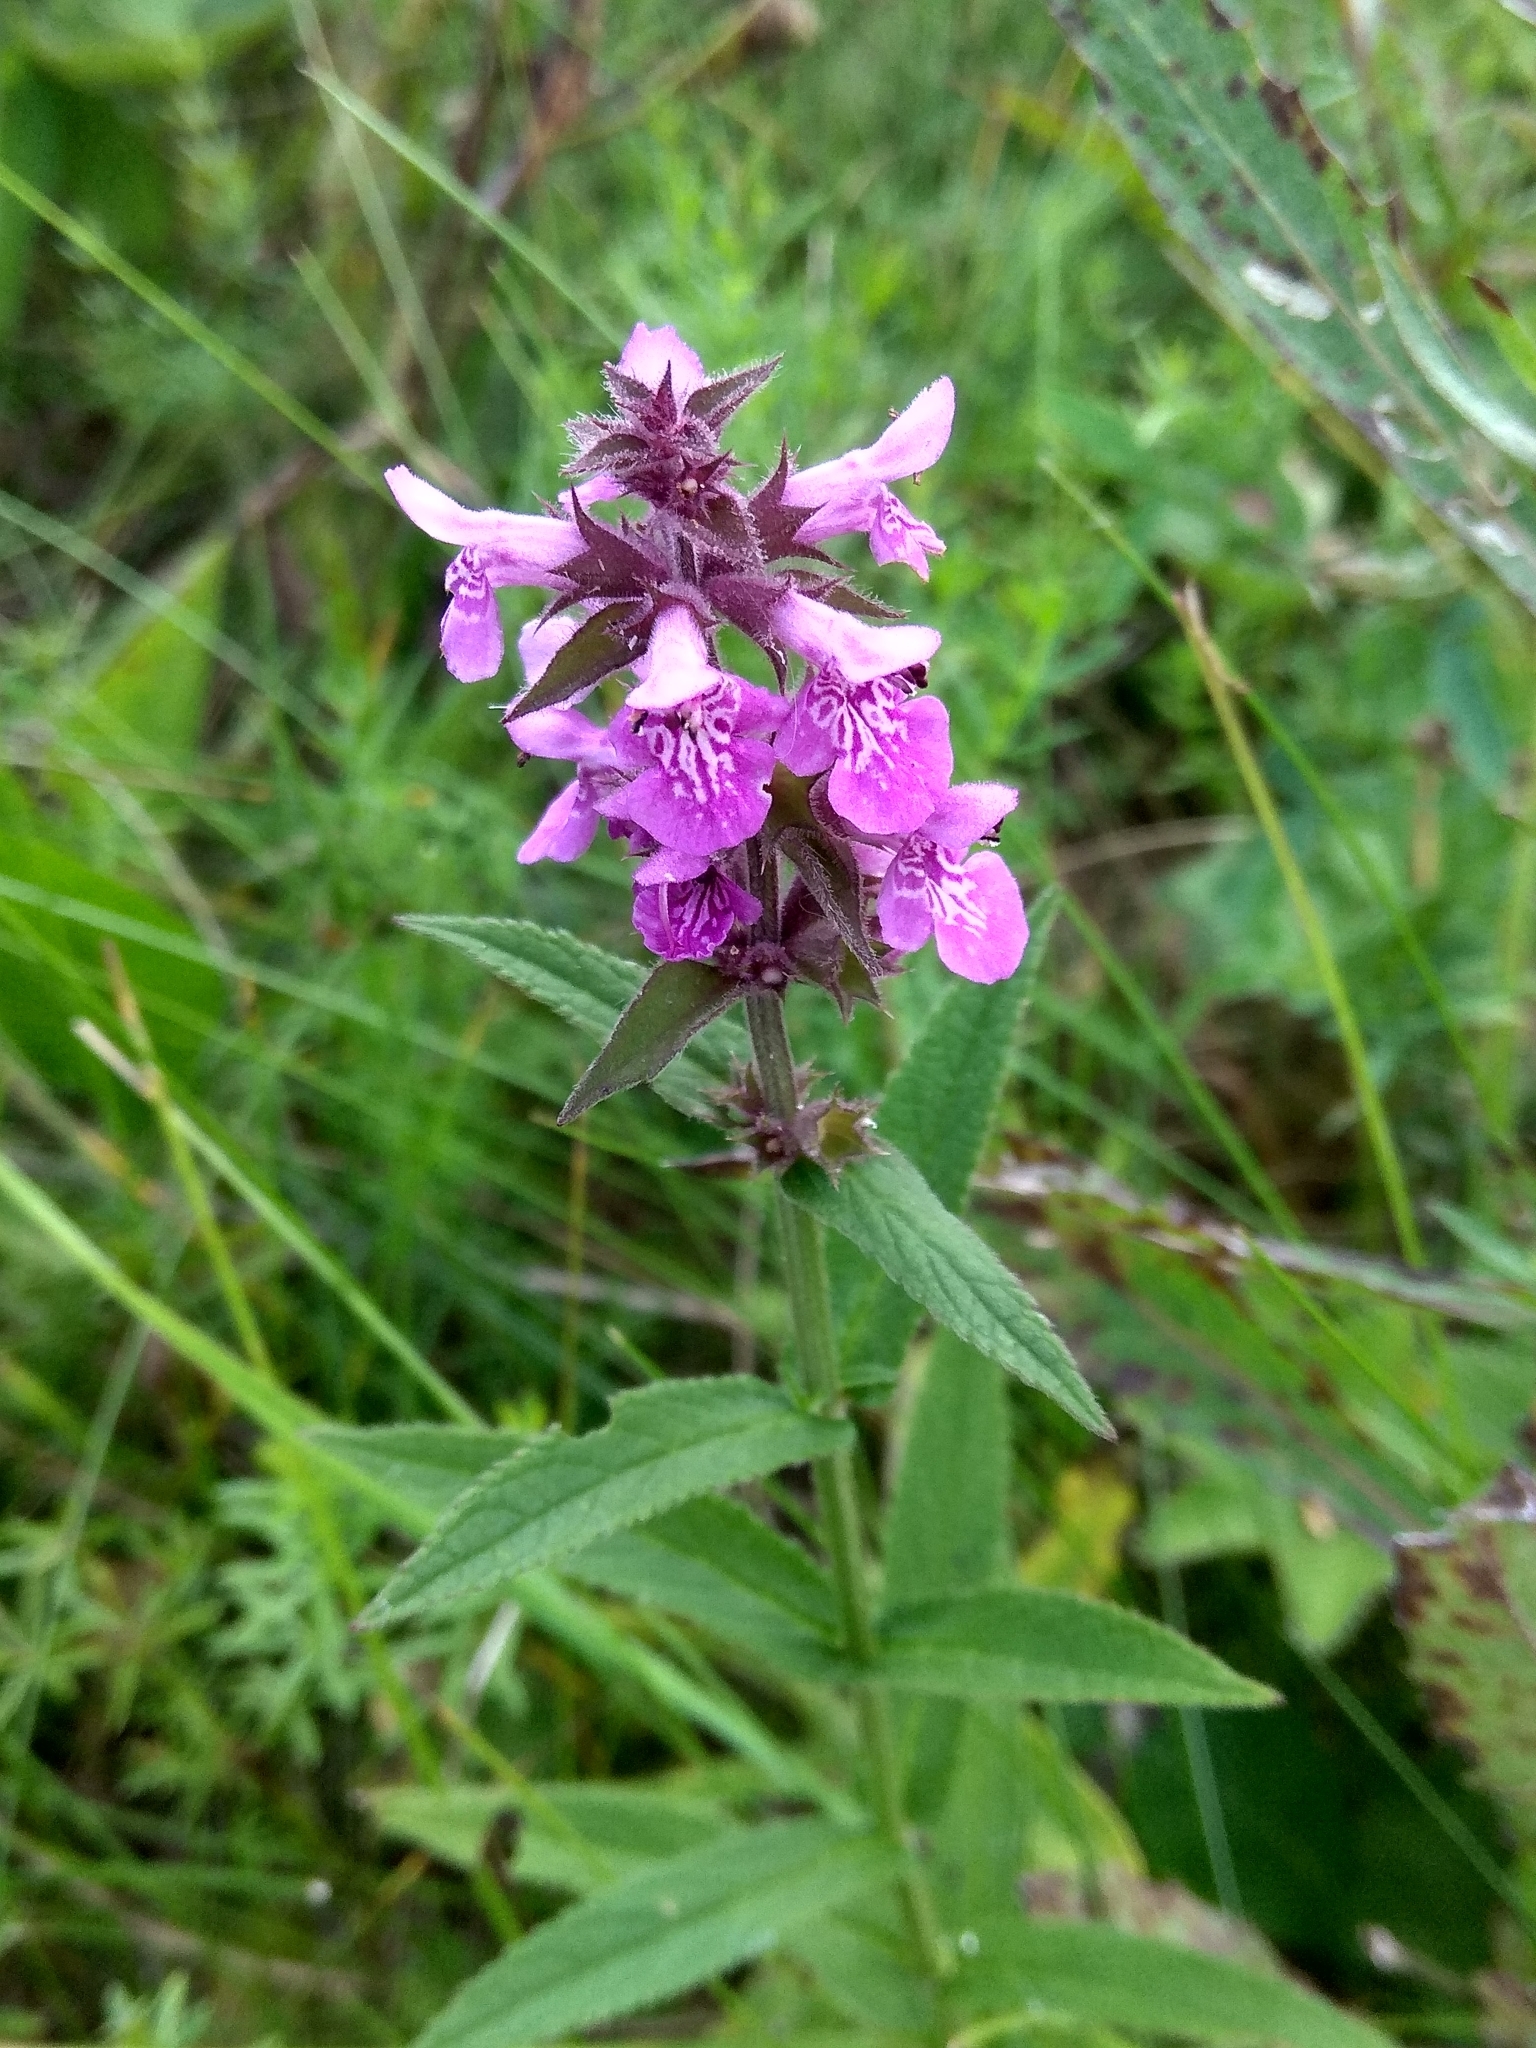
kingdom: Plantae
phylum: Tracheophyta
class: Magnoliopsida
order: Lamiales
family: Lamiaceae
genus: Stachys
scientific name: Stachys palustris
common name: Marsh woundwort
